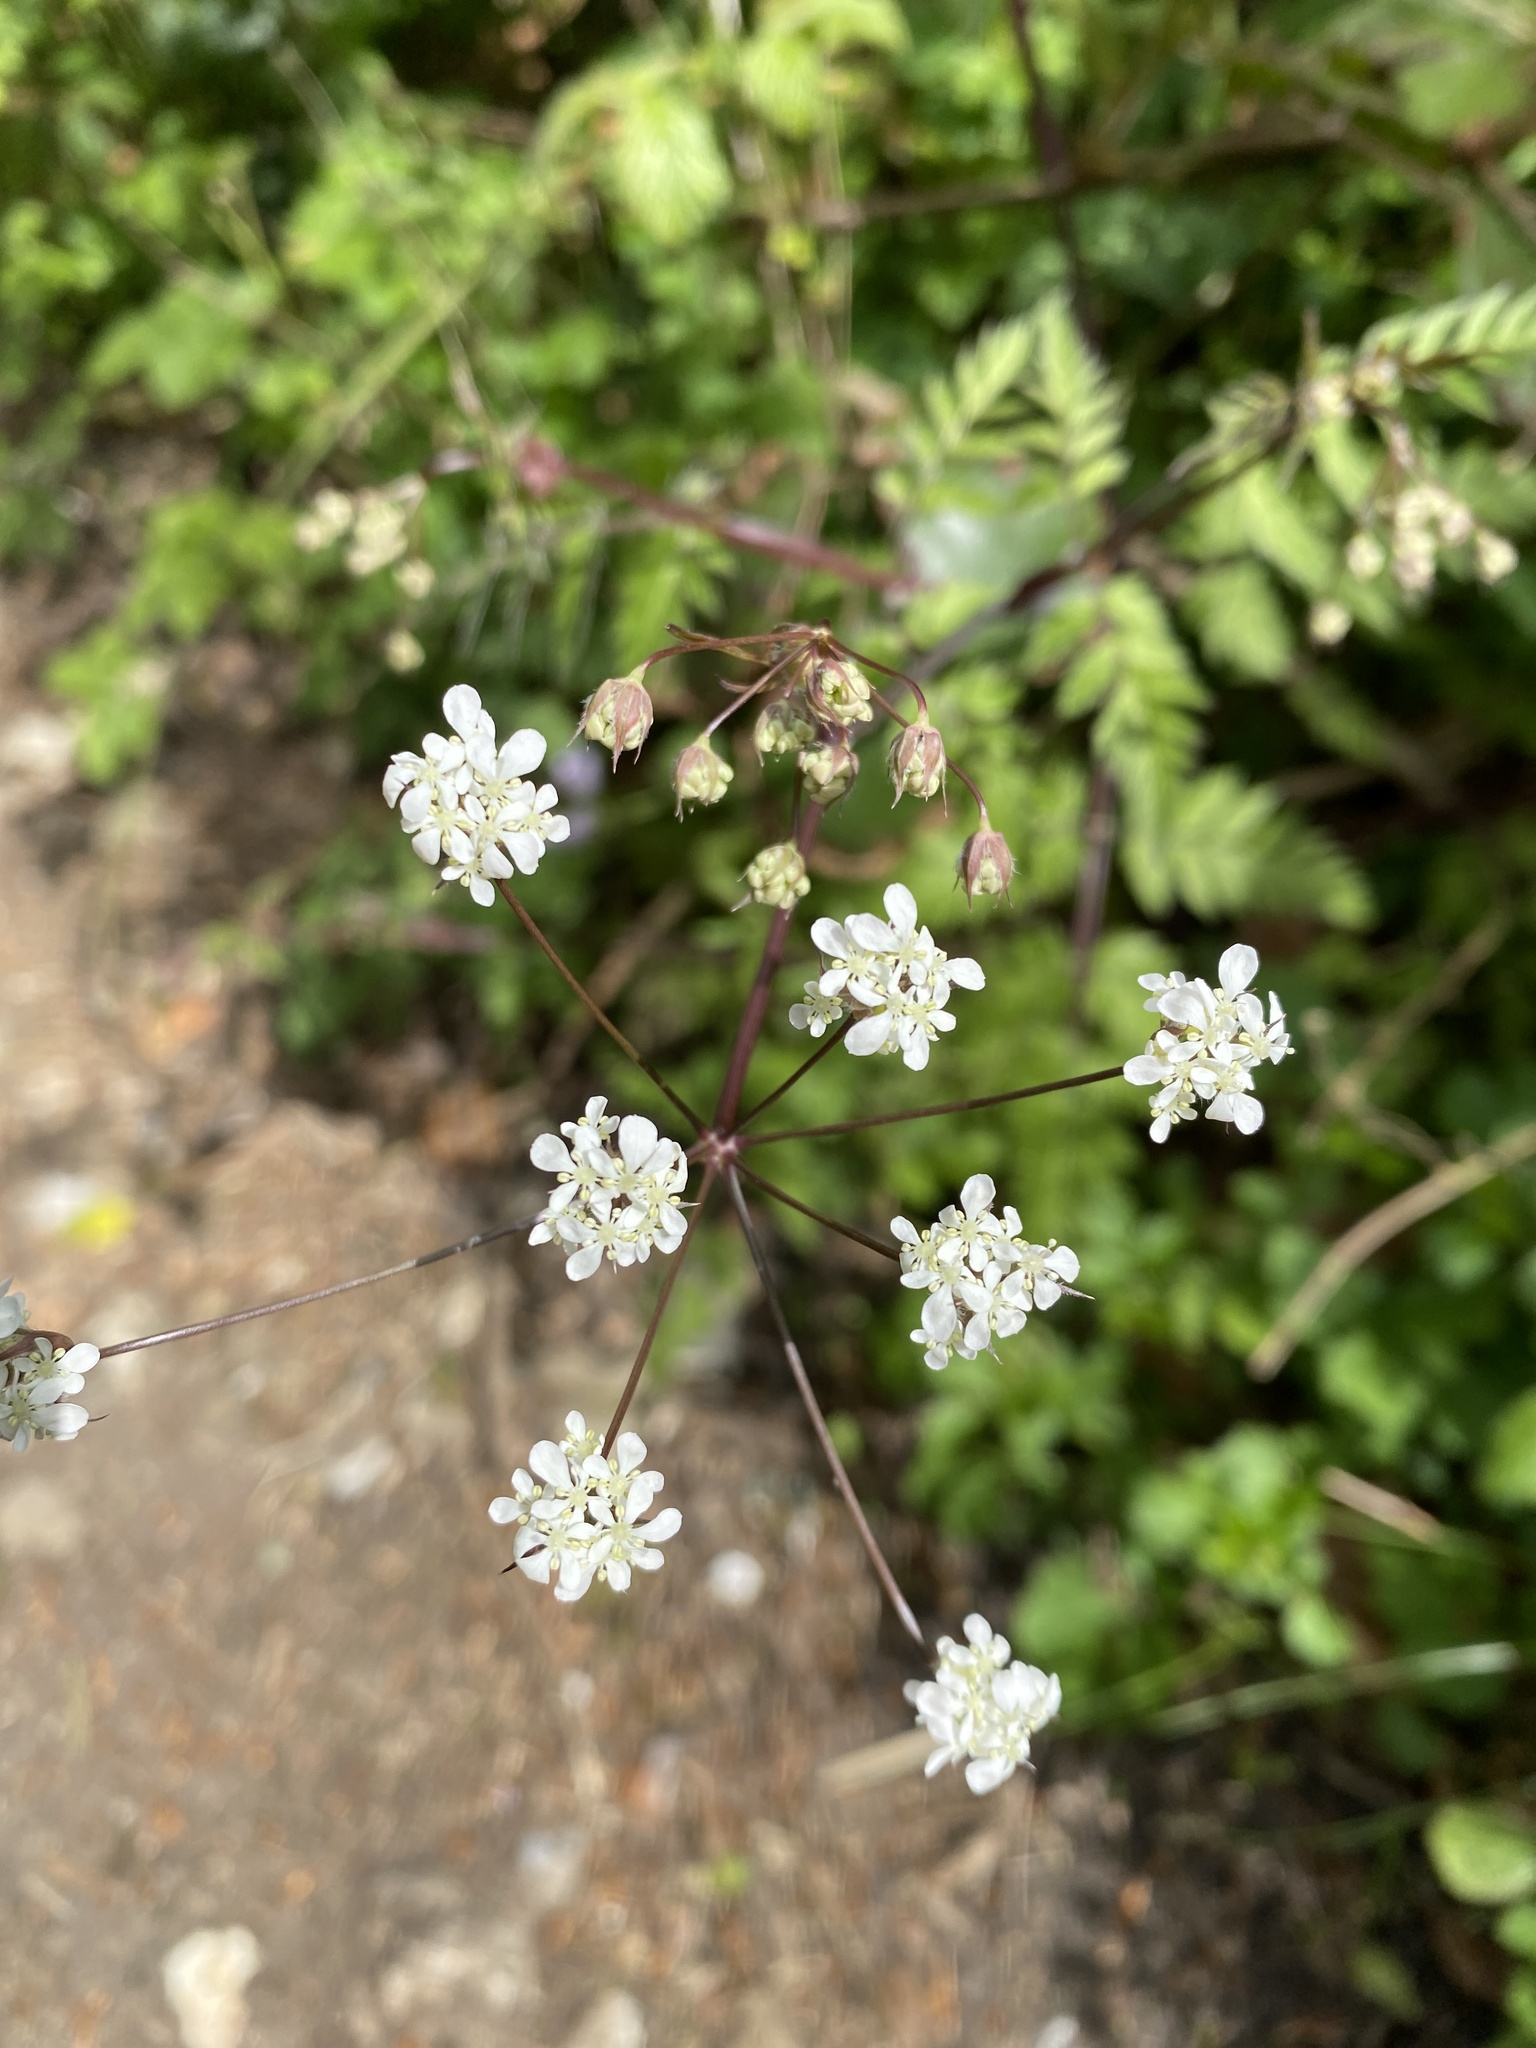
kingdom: Plantae
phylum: Tracheophyta
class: Magnoliopsida
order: Apiales
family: Apiaceae
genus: Anthriscus
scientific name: Anthriscus sylvestris
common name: Cow parsley
